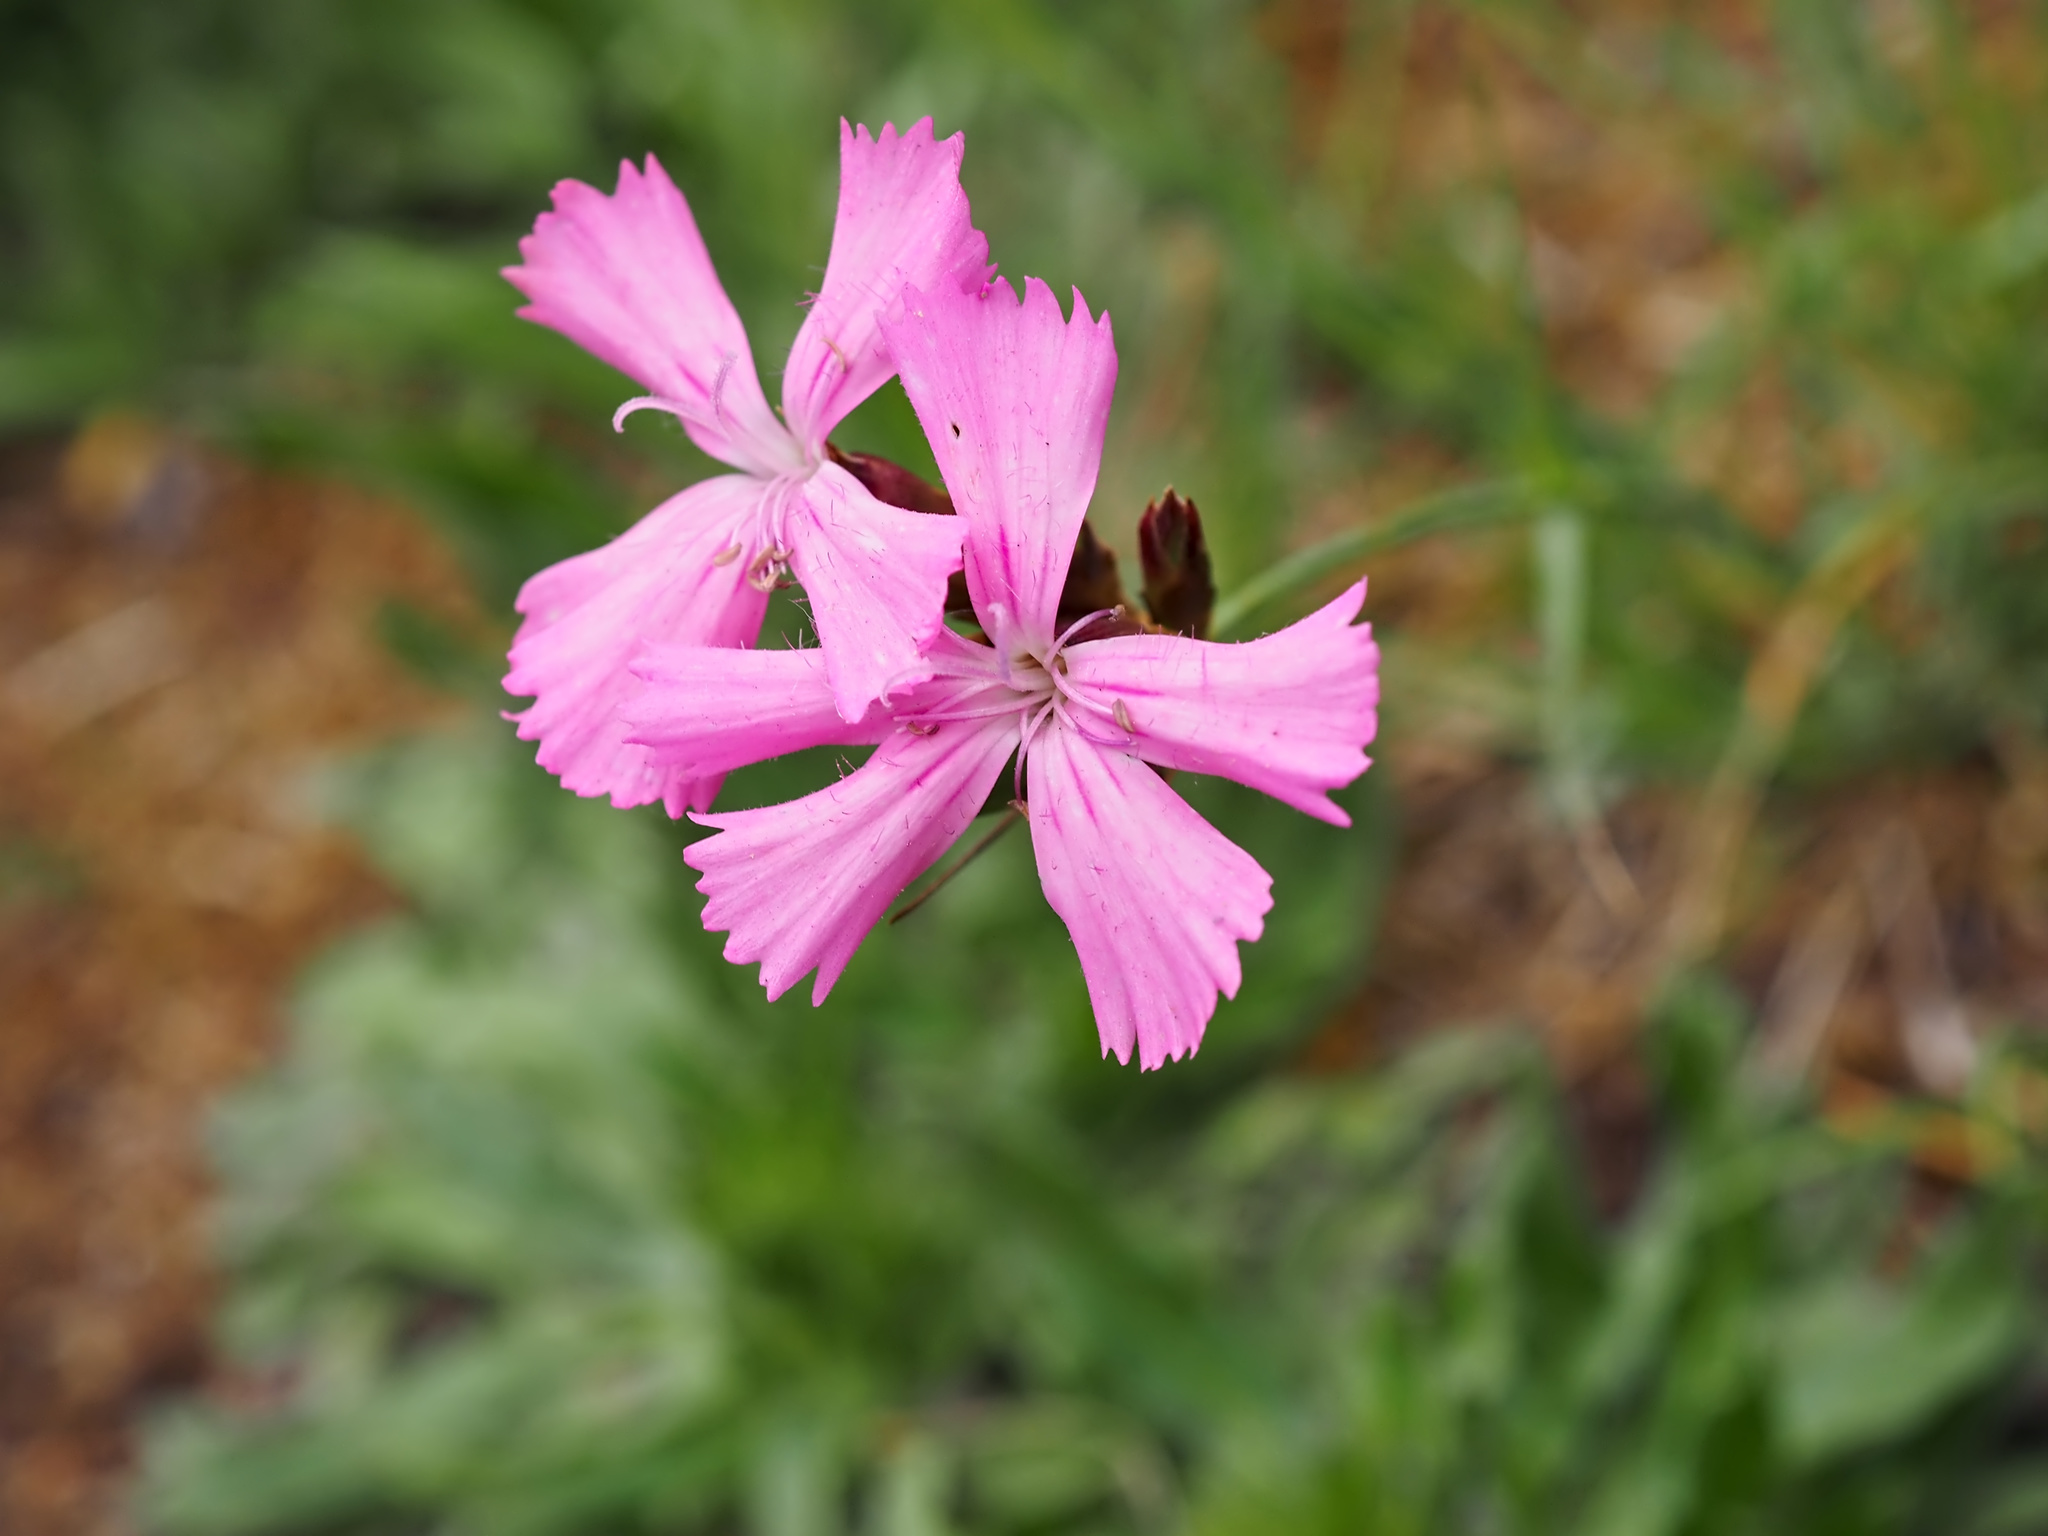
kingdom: Plantae
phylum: Tracheophyta
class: Magnoliopsida
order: Caryophyllales
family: Caryophyllaceae
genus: Dianthus
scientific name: Dianthus carthusianorum
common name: Carthusian pink
